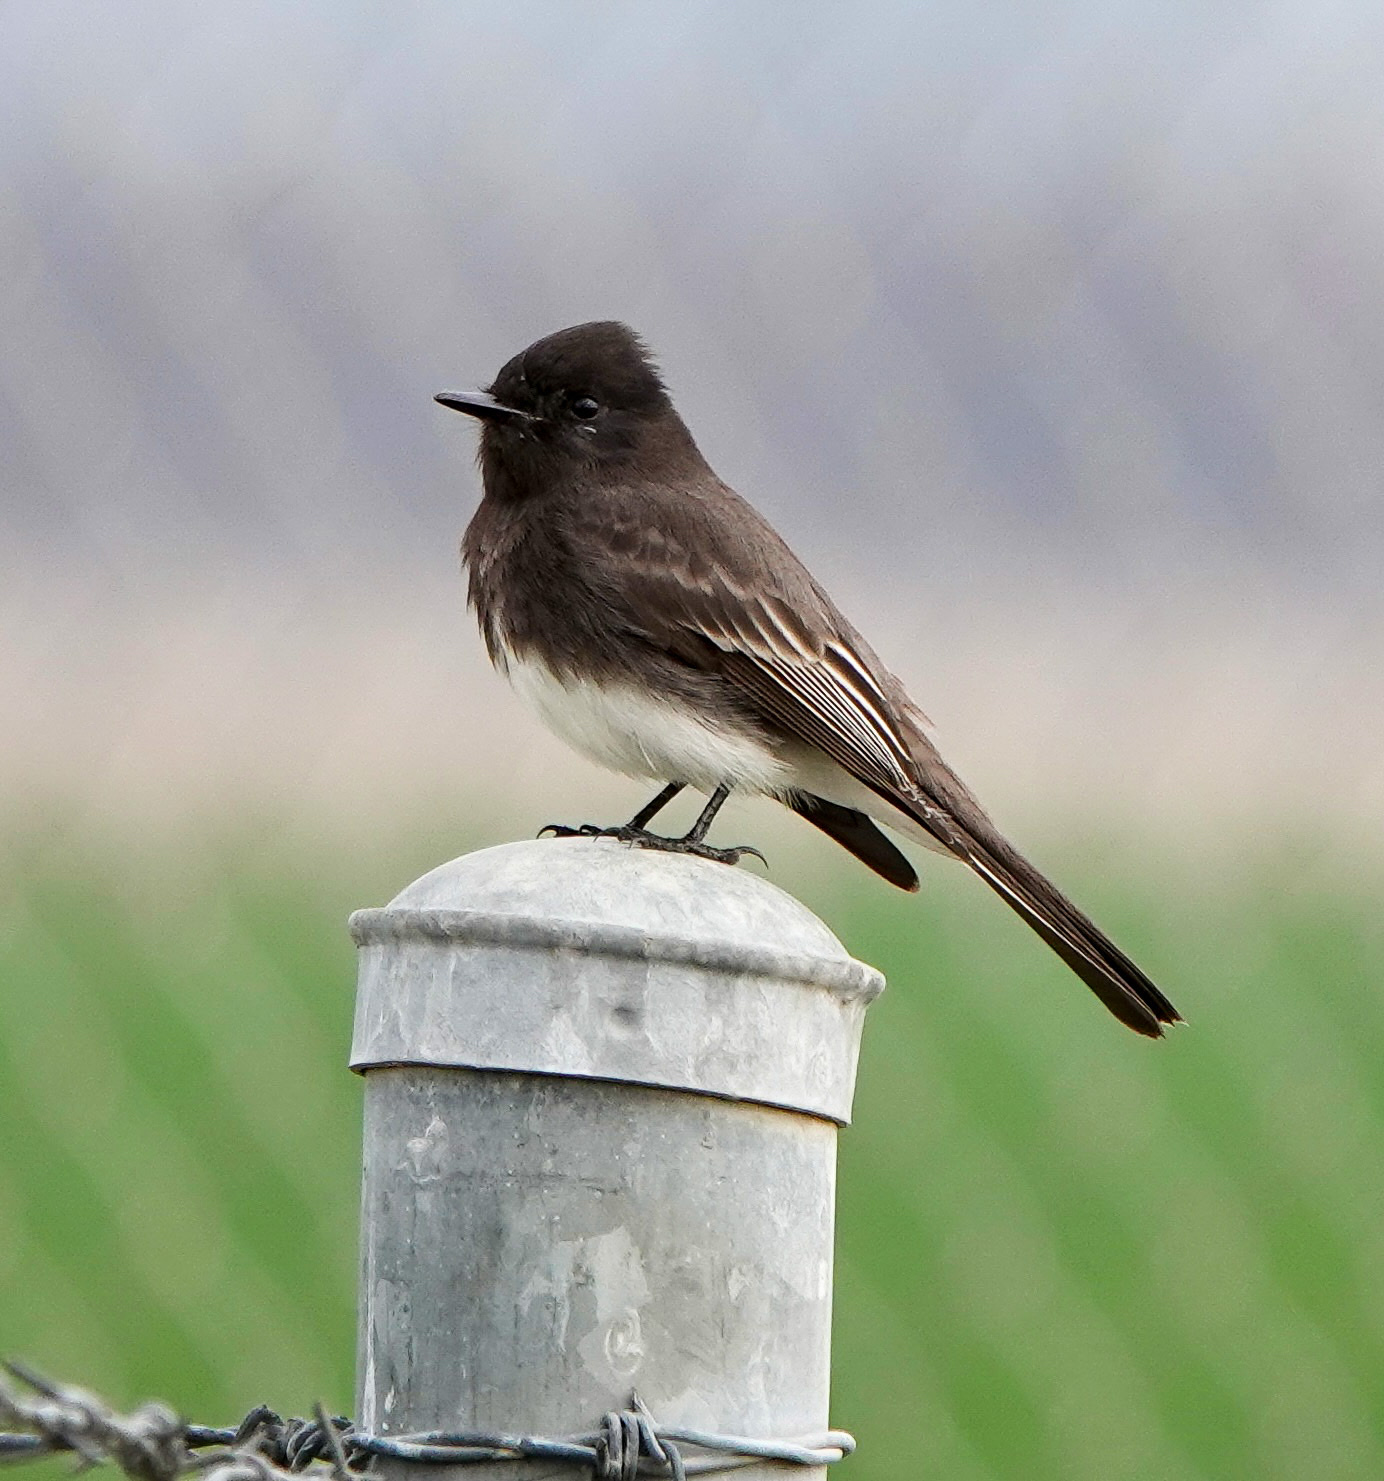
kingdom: Animalia
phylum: Chordata
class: Aves
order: Passeriformes
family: Tyrannidae
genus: Sayornis
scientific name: Sayornis nigricans
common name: Black phoebe
